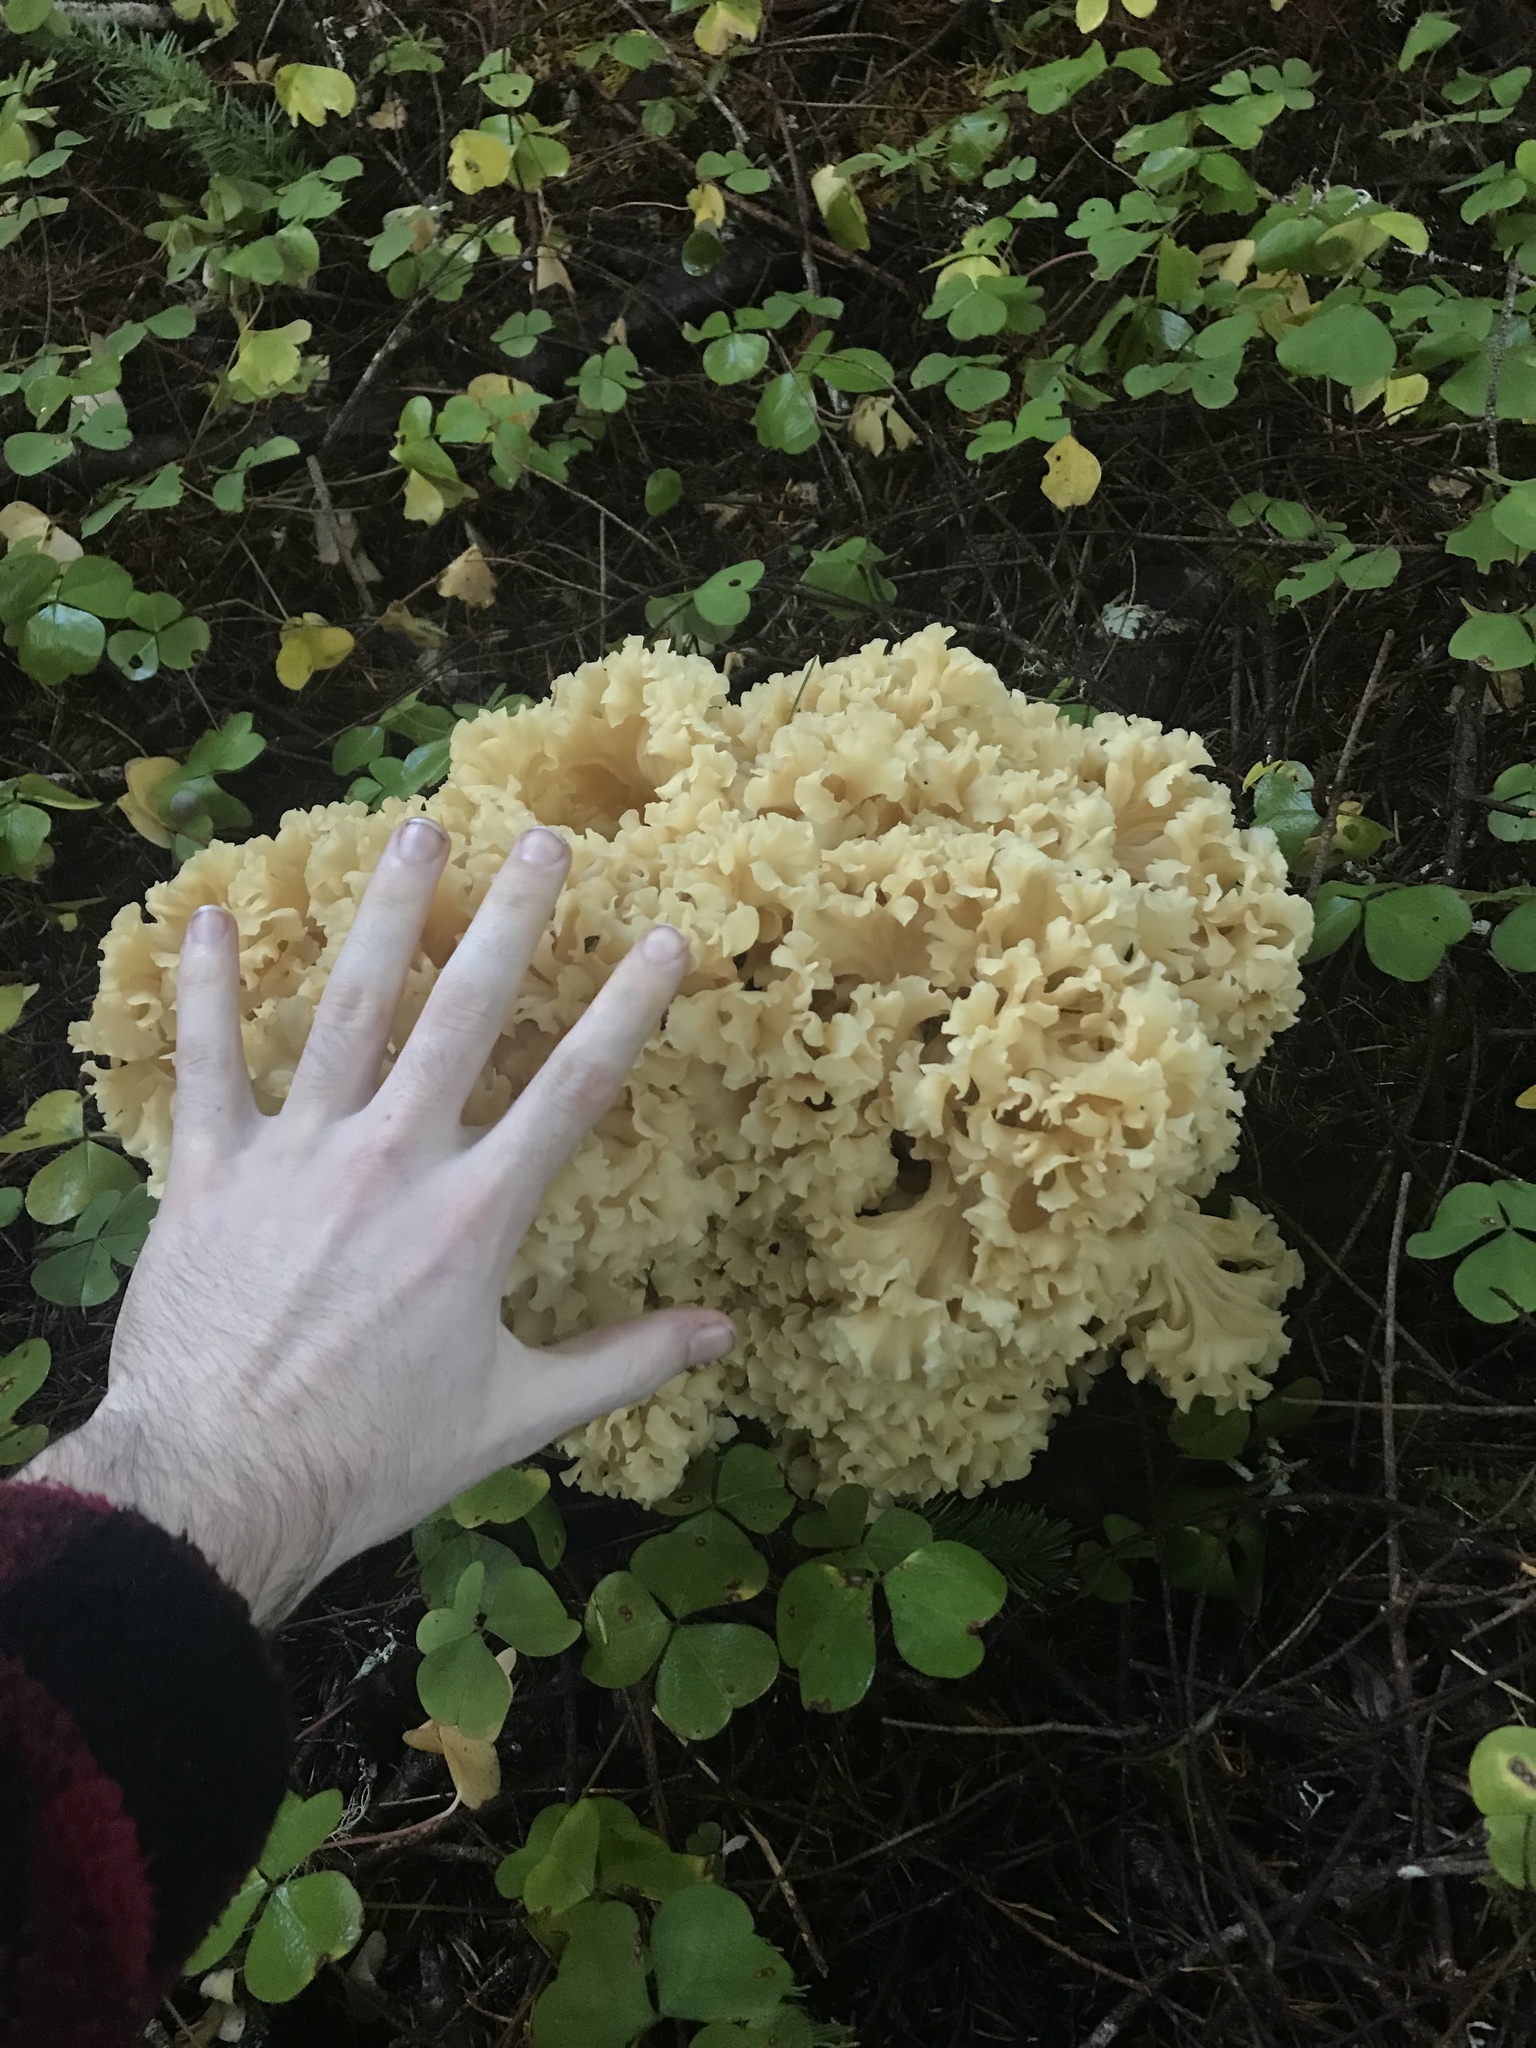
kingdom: Fungi
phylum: Basidiomycota
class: Agaricomycetes
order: Polyporales
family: Sparassidaceae
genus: Sparassis
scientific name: Sparassis radicata
